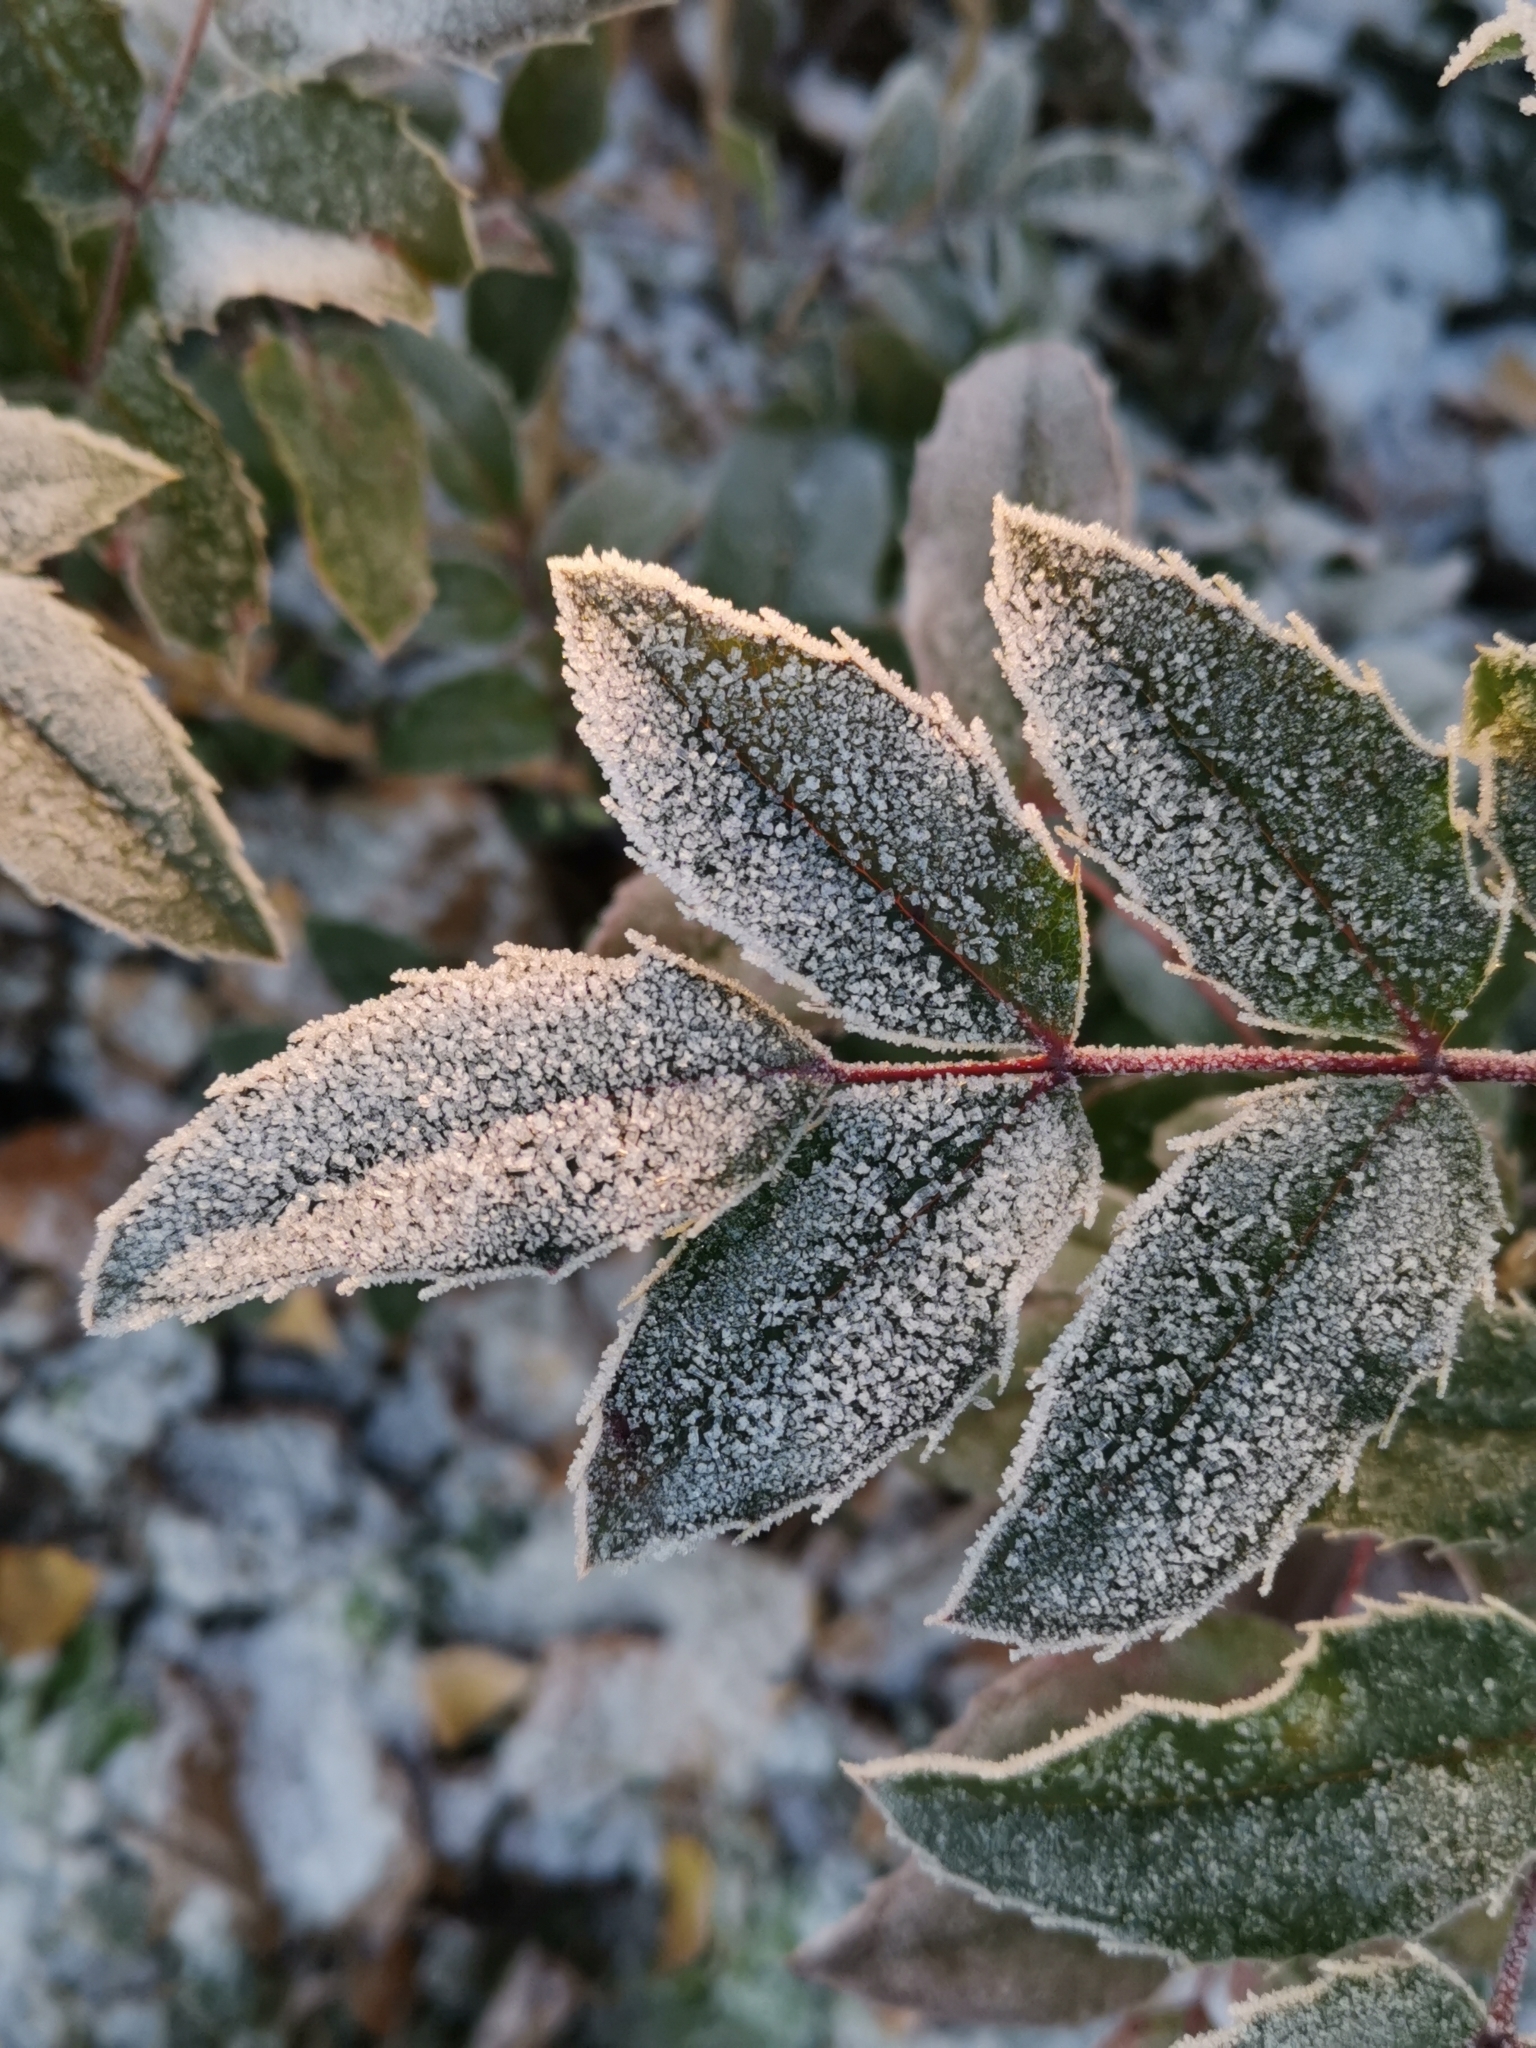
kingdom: Plantae
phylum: Tracheophyta
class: Magnoliopsida
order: Ranunculales
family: Berberidaceae
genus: Mahonia
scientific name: Mahonia aquifolium
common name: Oregon-grape
